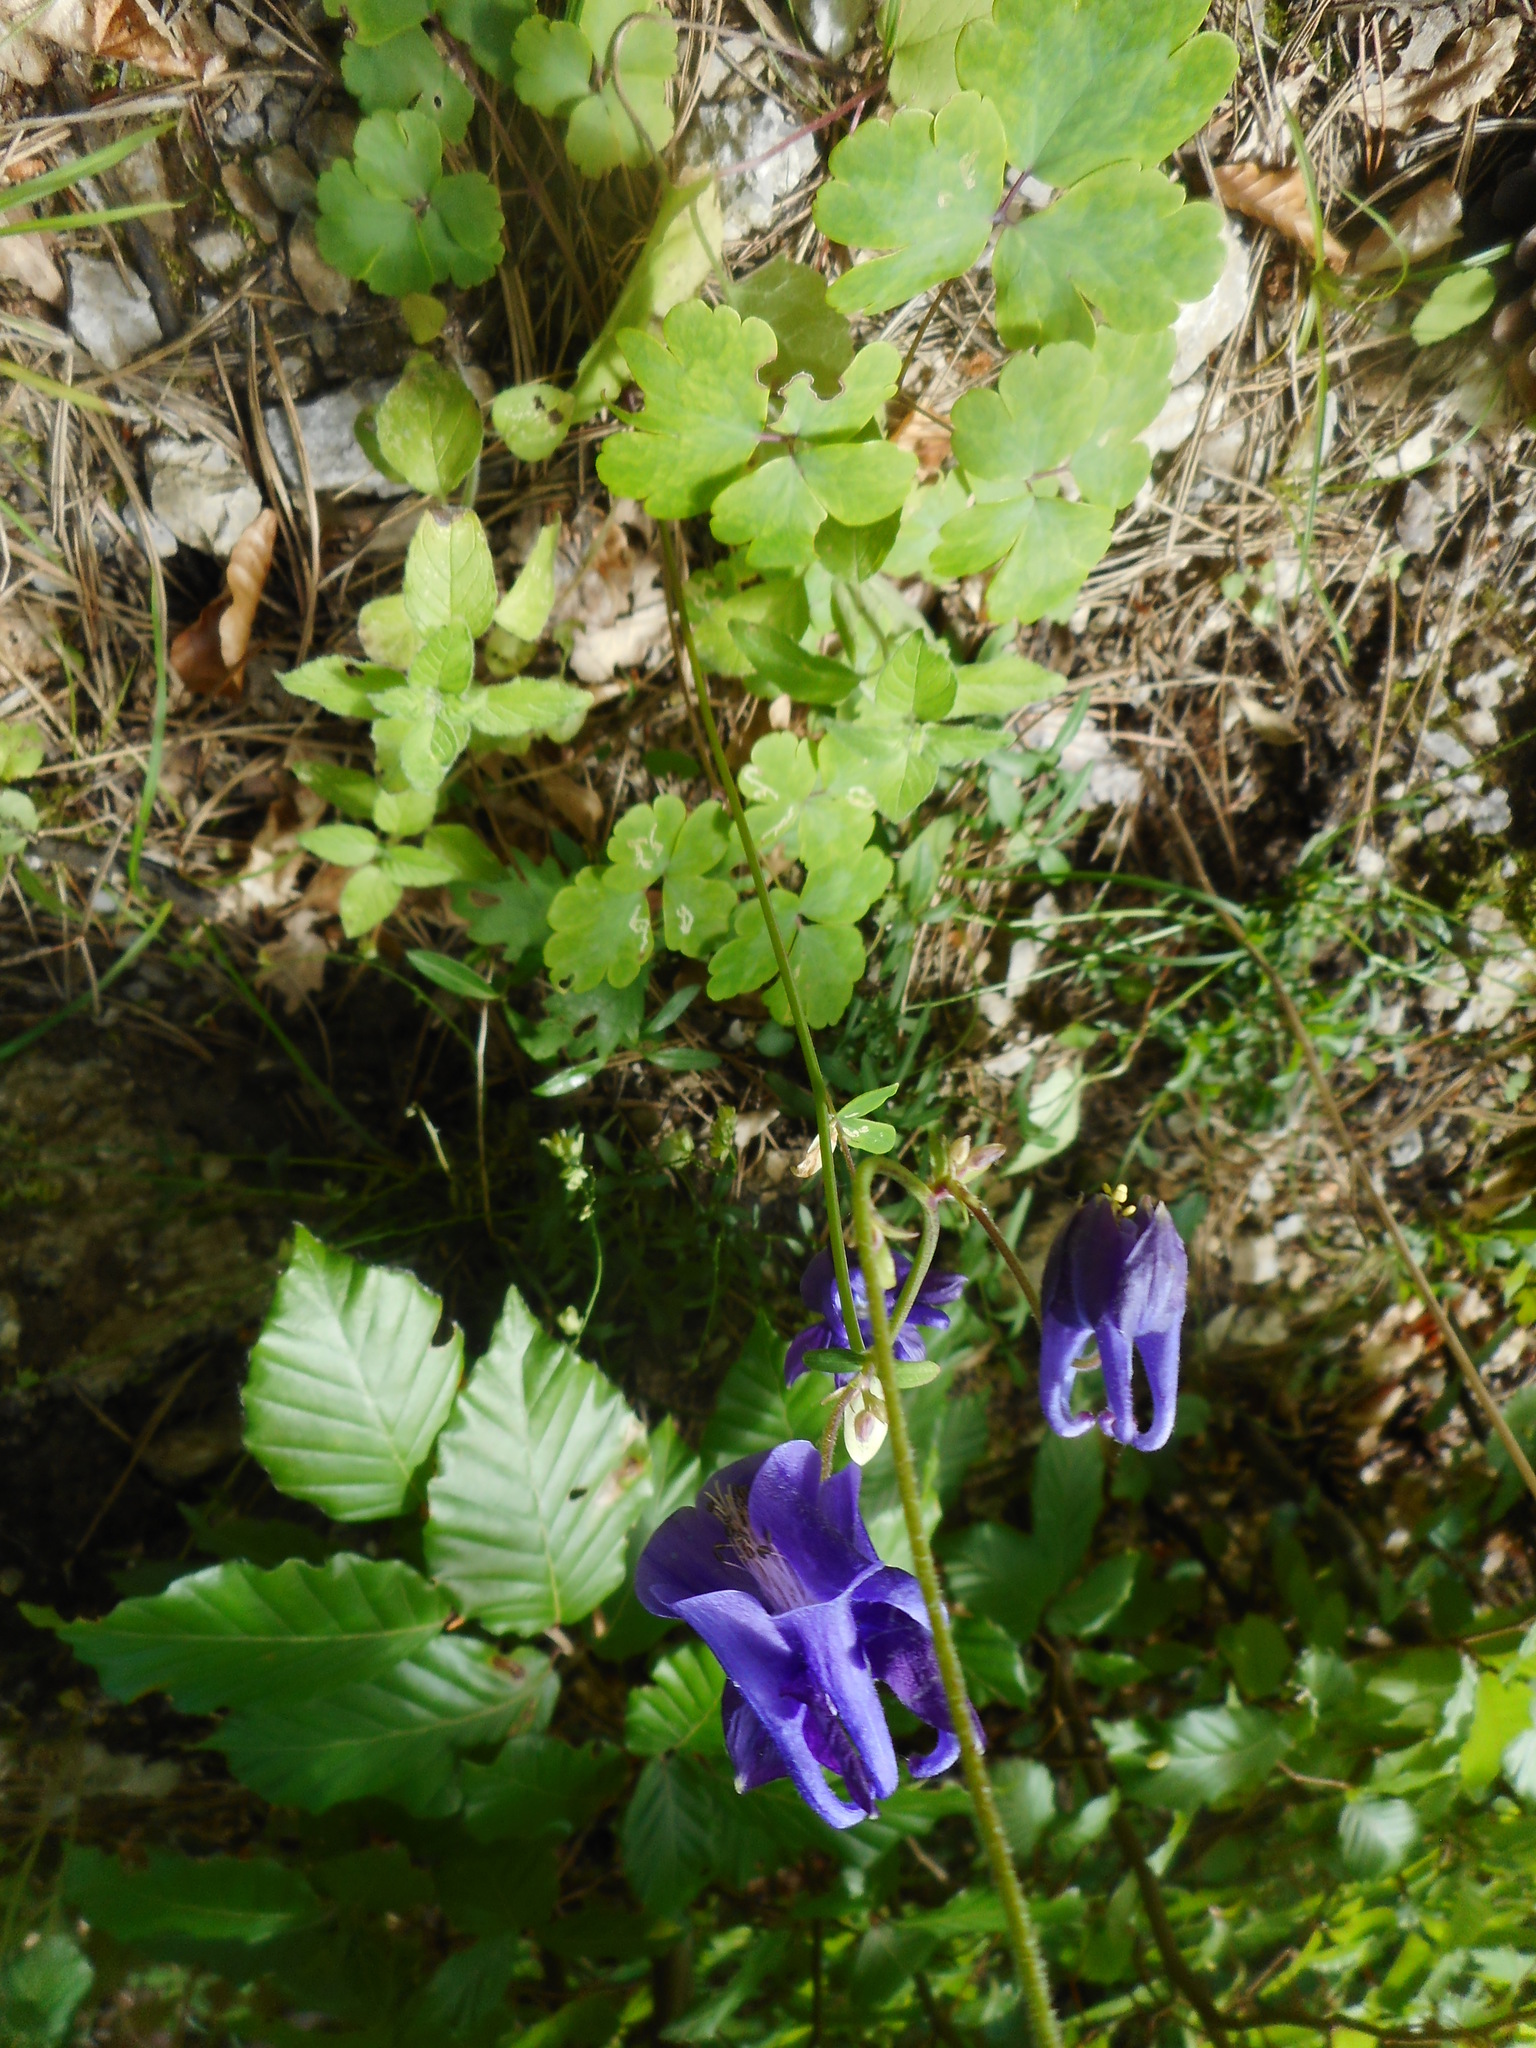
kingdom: Plantae
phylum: Tracheophyta
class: Magnoliopsida
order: Ranunculales
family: Ranunculaceae
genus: Aquilegia
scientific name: Aquilegia vulgaris
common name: Columbine
